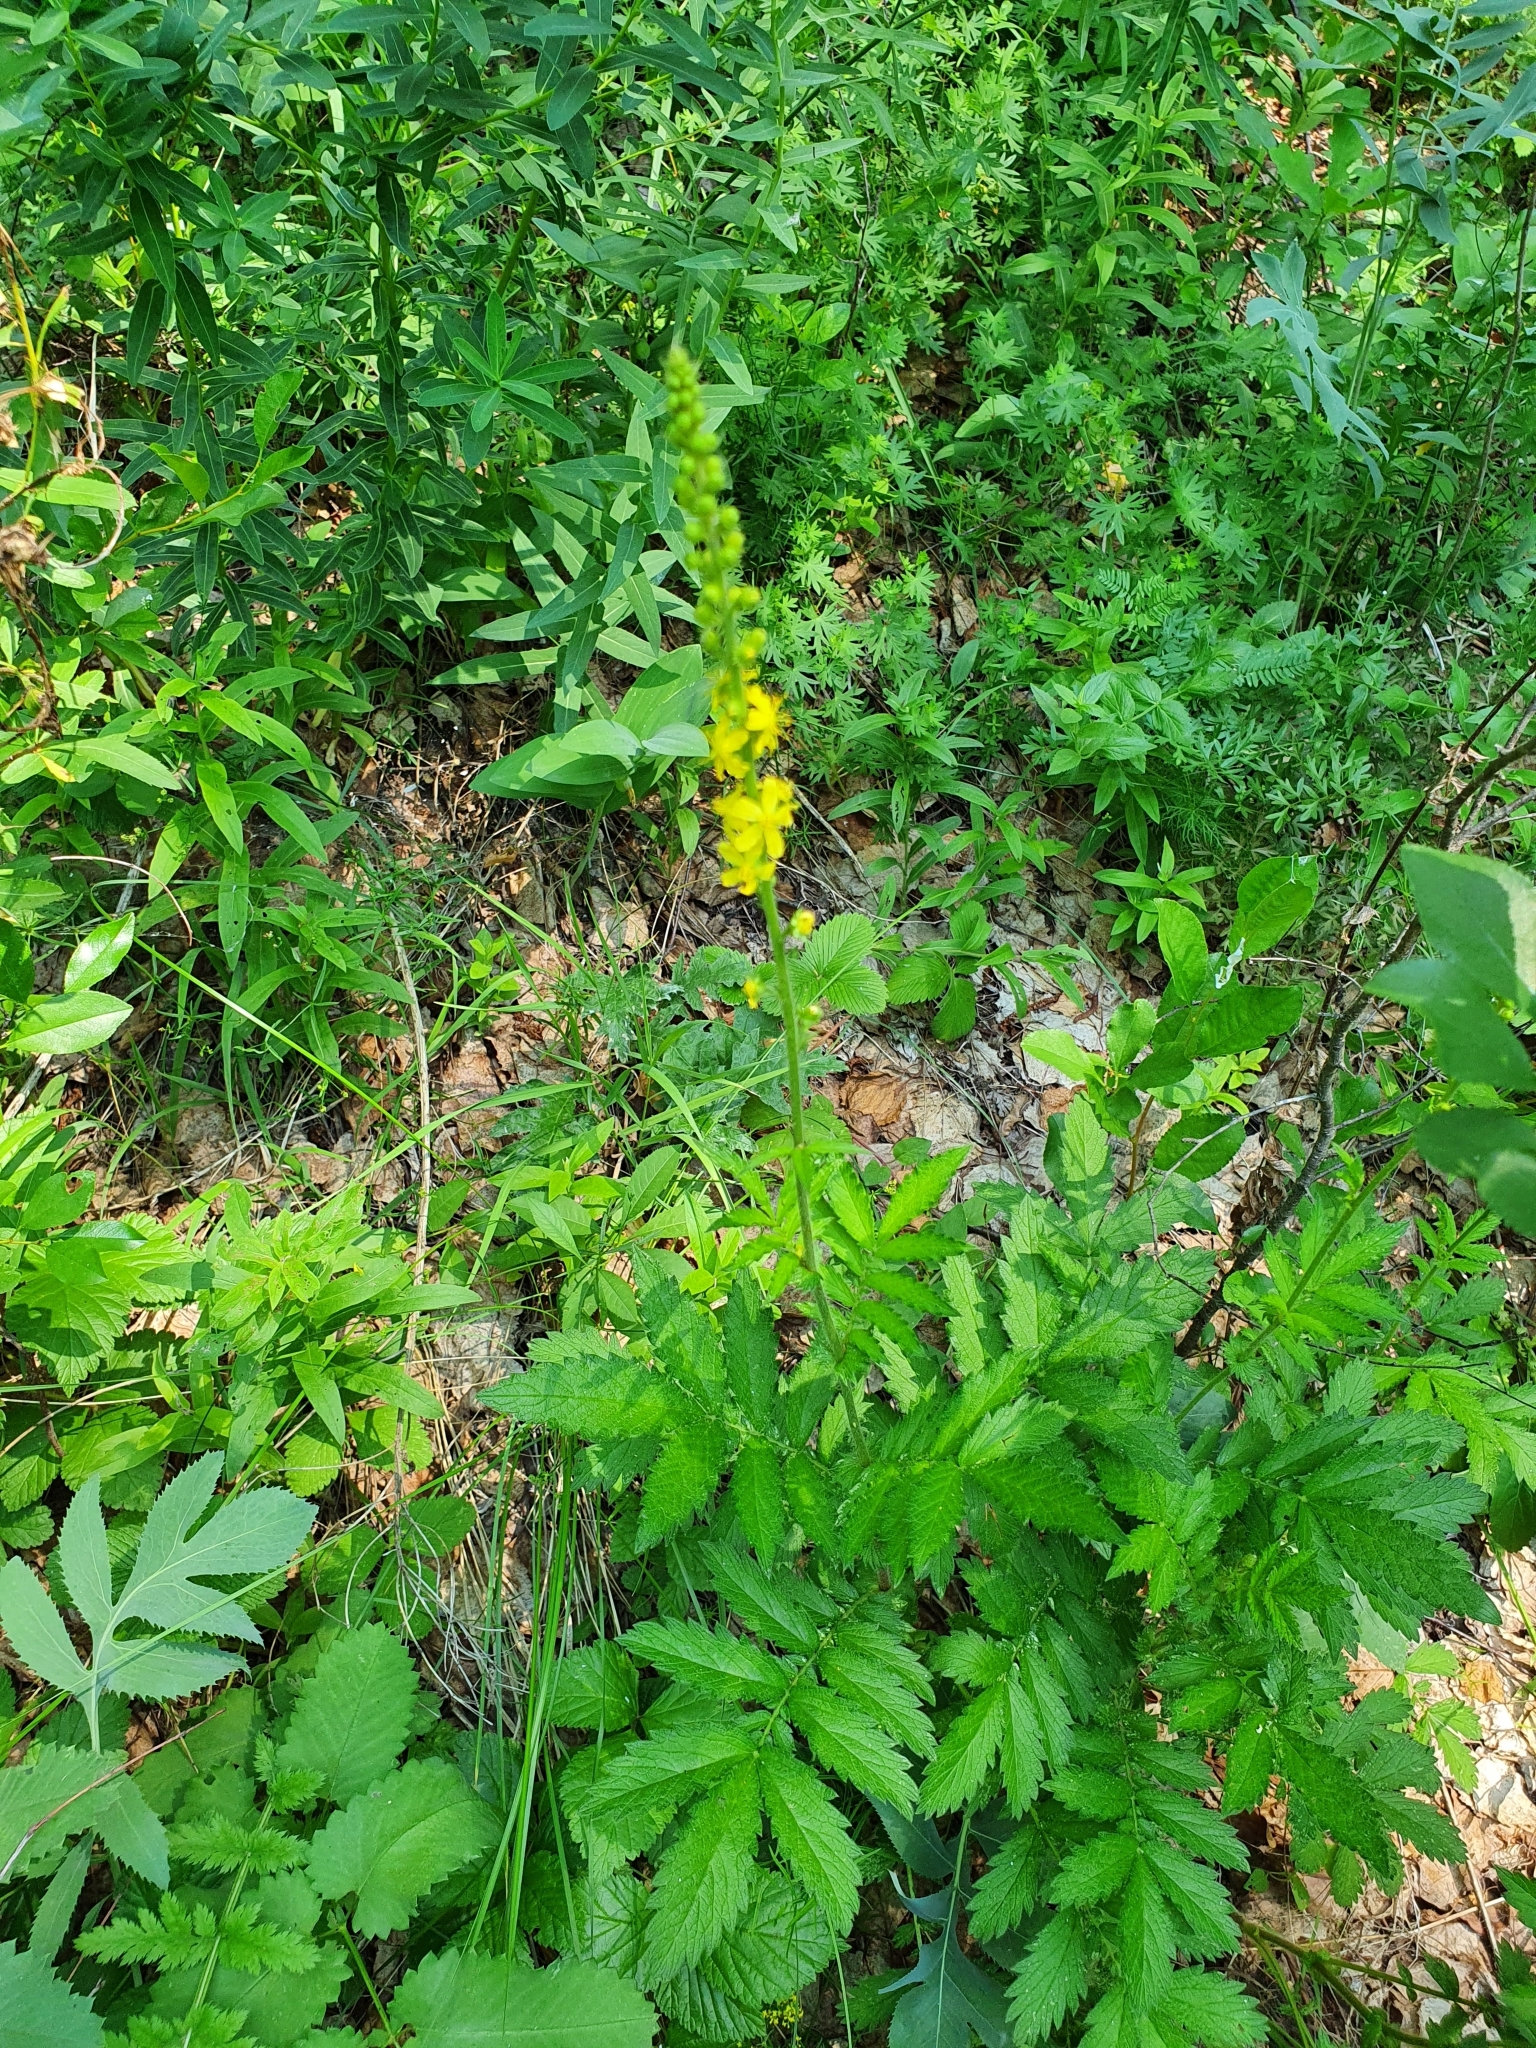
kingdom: Plantae
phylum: Tracheophyta
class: Magnoliopsida
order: Rosales
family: Rosaceae
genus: Agrimonia
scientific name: Agrimonia eupatoria
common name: Agrimony
